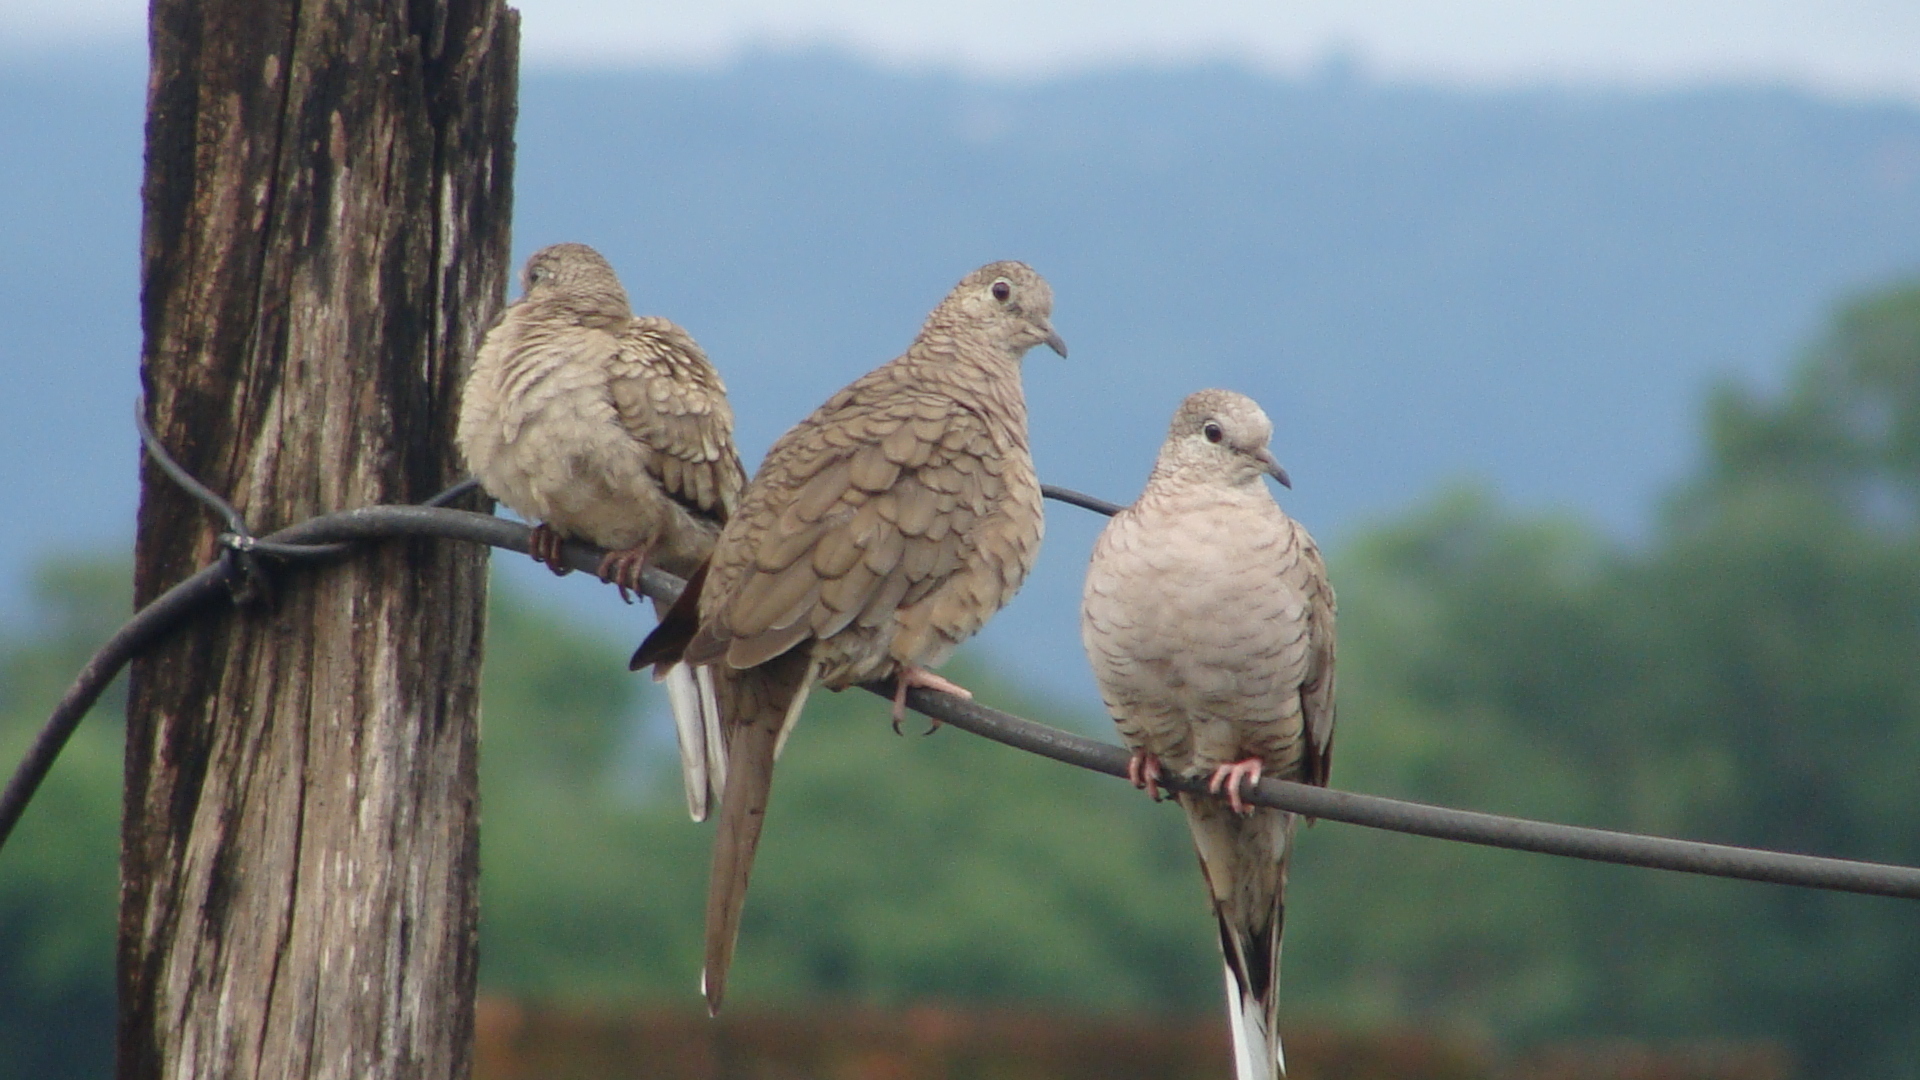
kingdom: Animalia
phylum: Chordata
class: Aves
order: Columbiformes
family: Columbidae
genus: Columbina
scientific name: Columbina inca
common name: Inca dove
